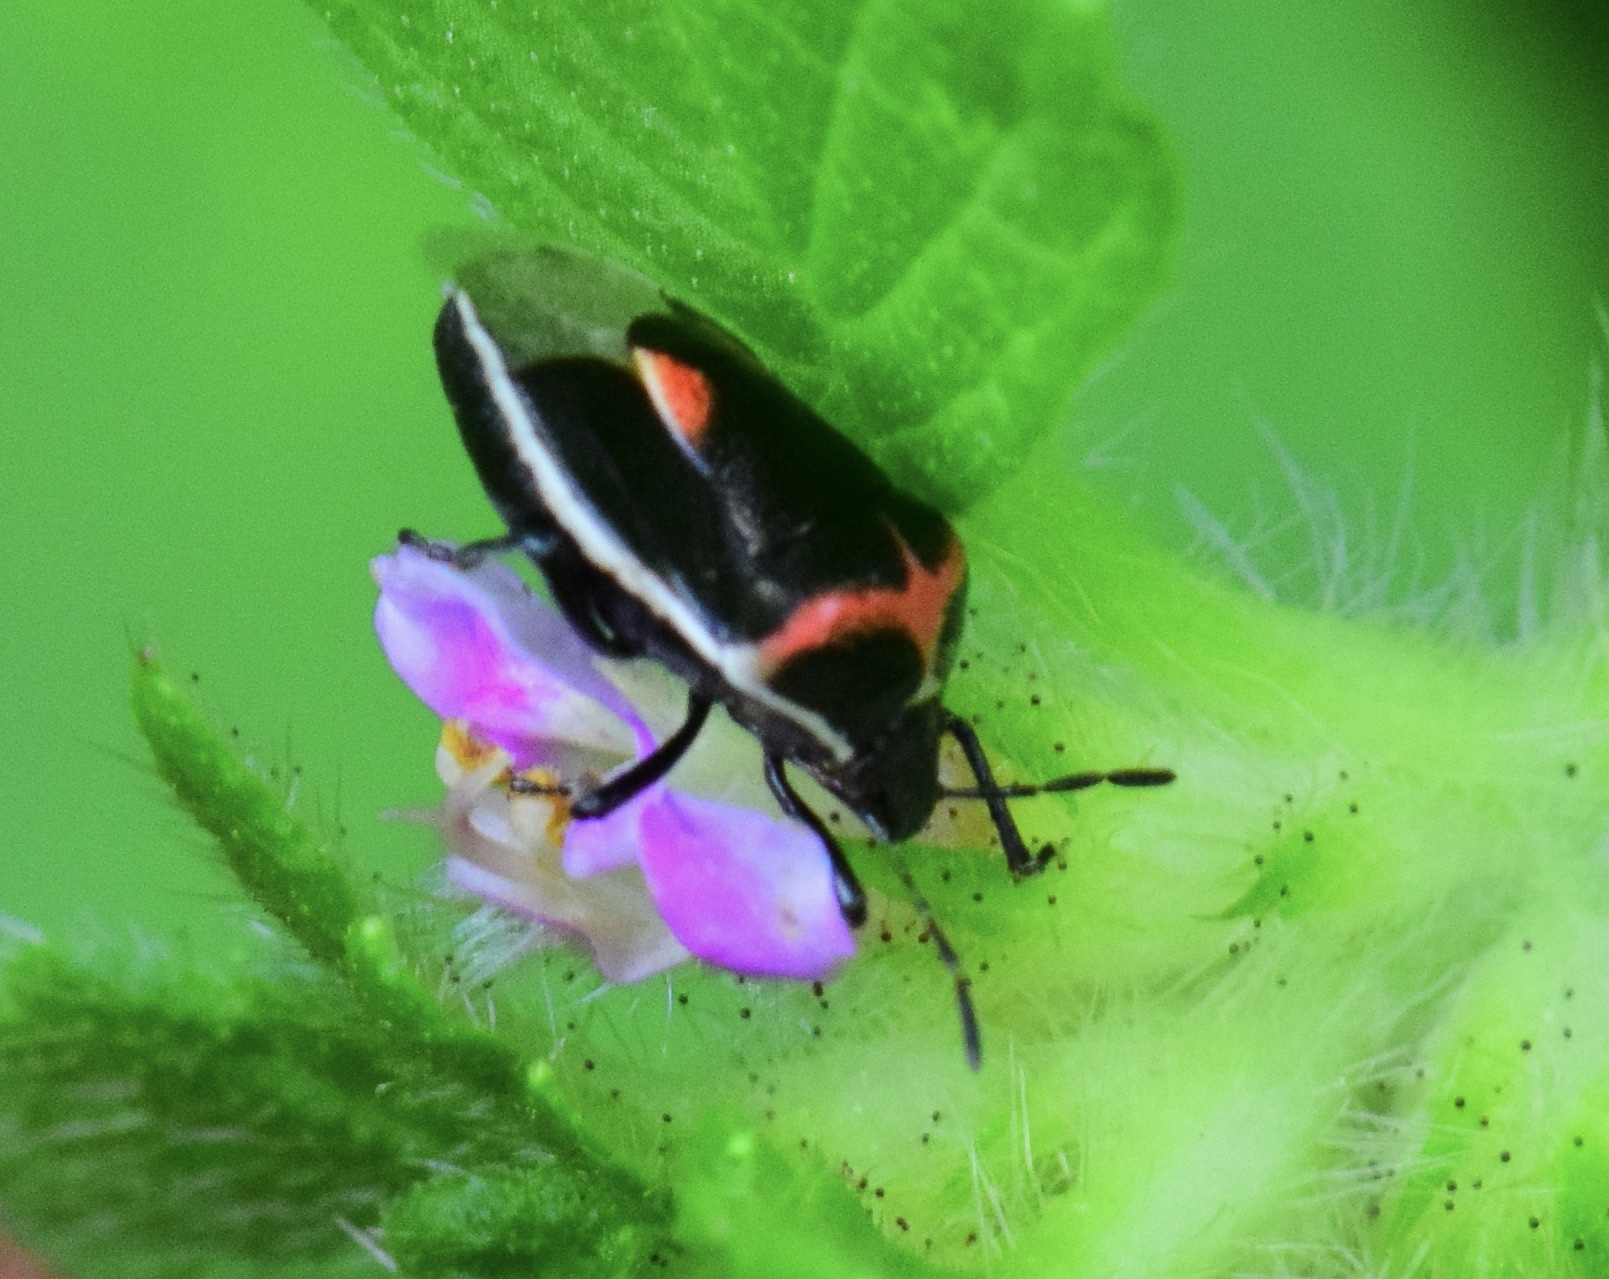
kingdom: Animalia
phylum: Arthropoda
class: Insecta
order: Hemiptera
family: Pentatomidae
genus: Cosmopepla
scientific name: Cosmopepla lintneriana
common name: Twice-stabbed stink bug
